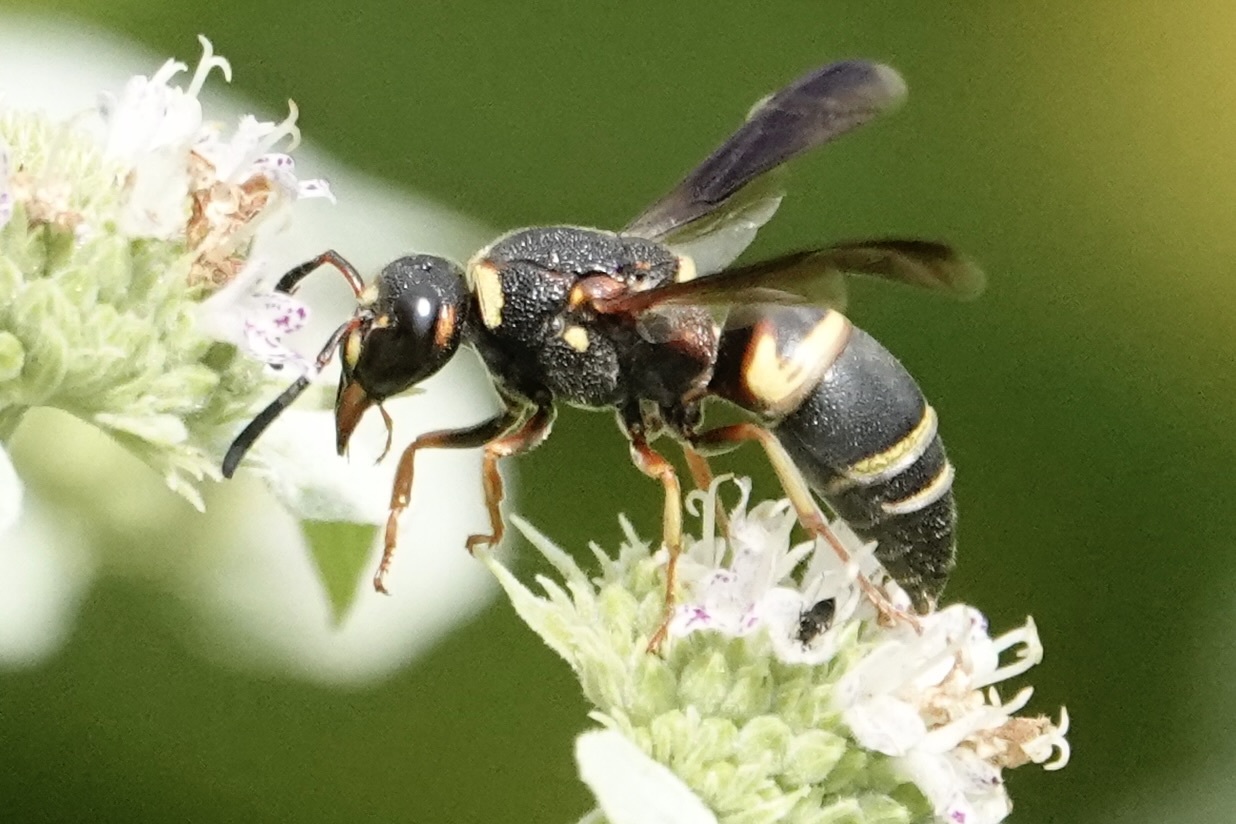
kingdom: Animalia
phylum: Arthropoda
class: Insecta
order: Hymenoptera
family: Eumenidae
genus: Euodynerus
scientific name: Euodynerus hidalgo
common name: Wasp
